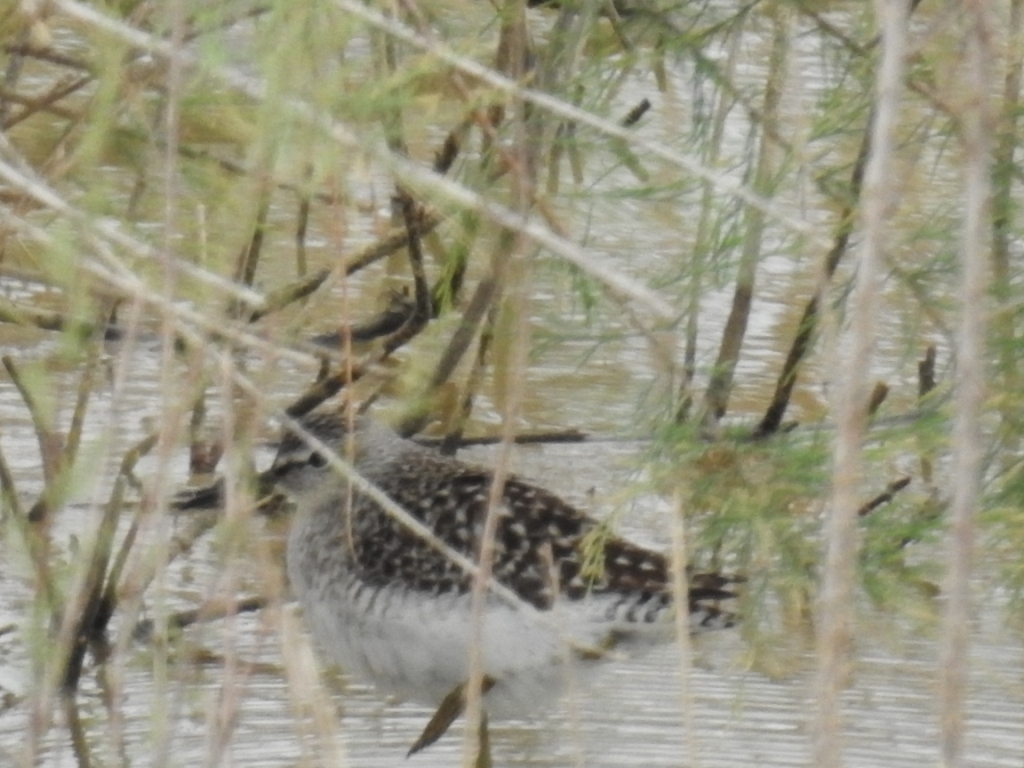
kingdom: Animalia
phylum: Chordata
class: Aves
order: Charadriiformes
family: Scolopacidae
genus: Tringa
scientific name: Tringa glareola
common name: Wood sandpiper
